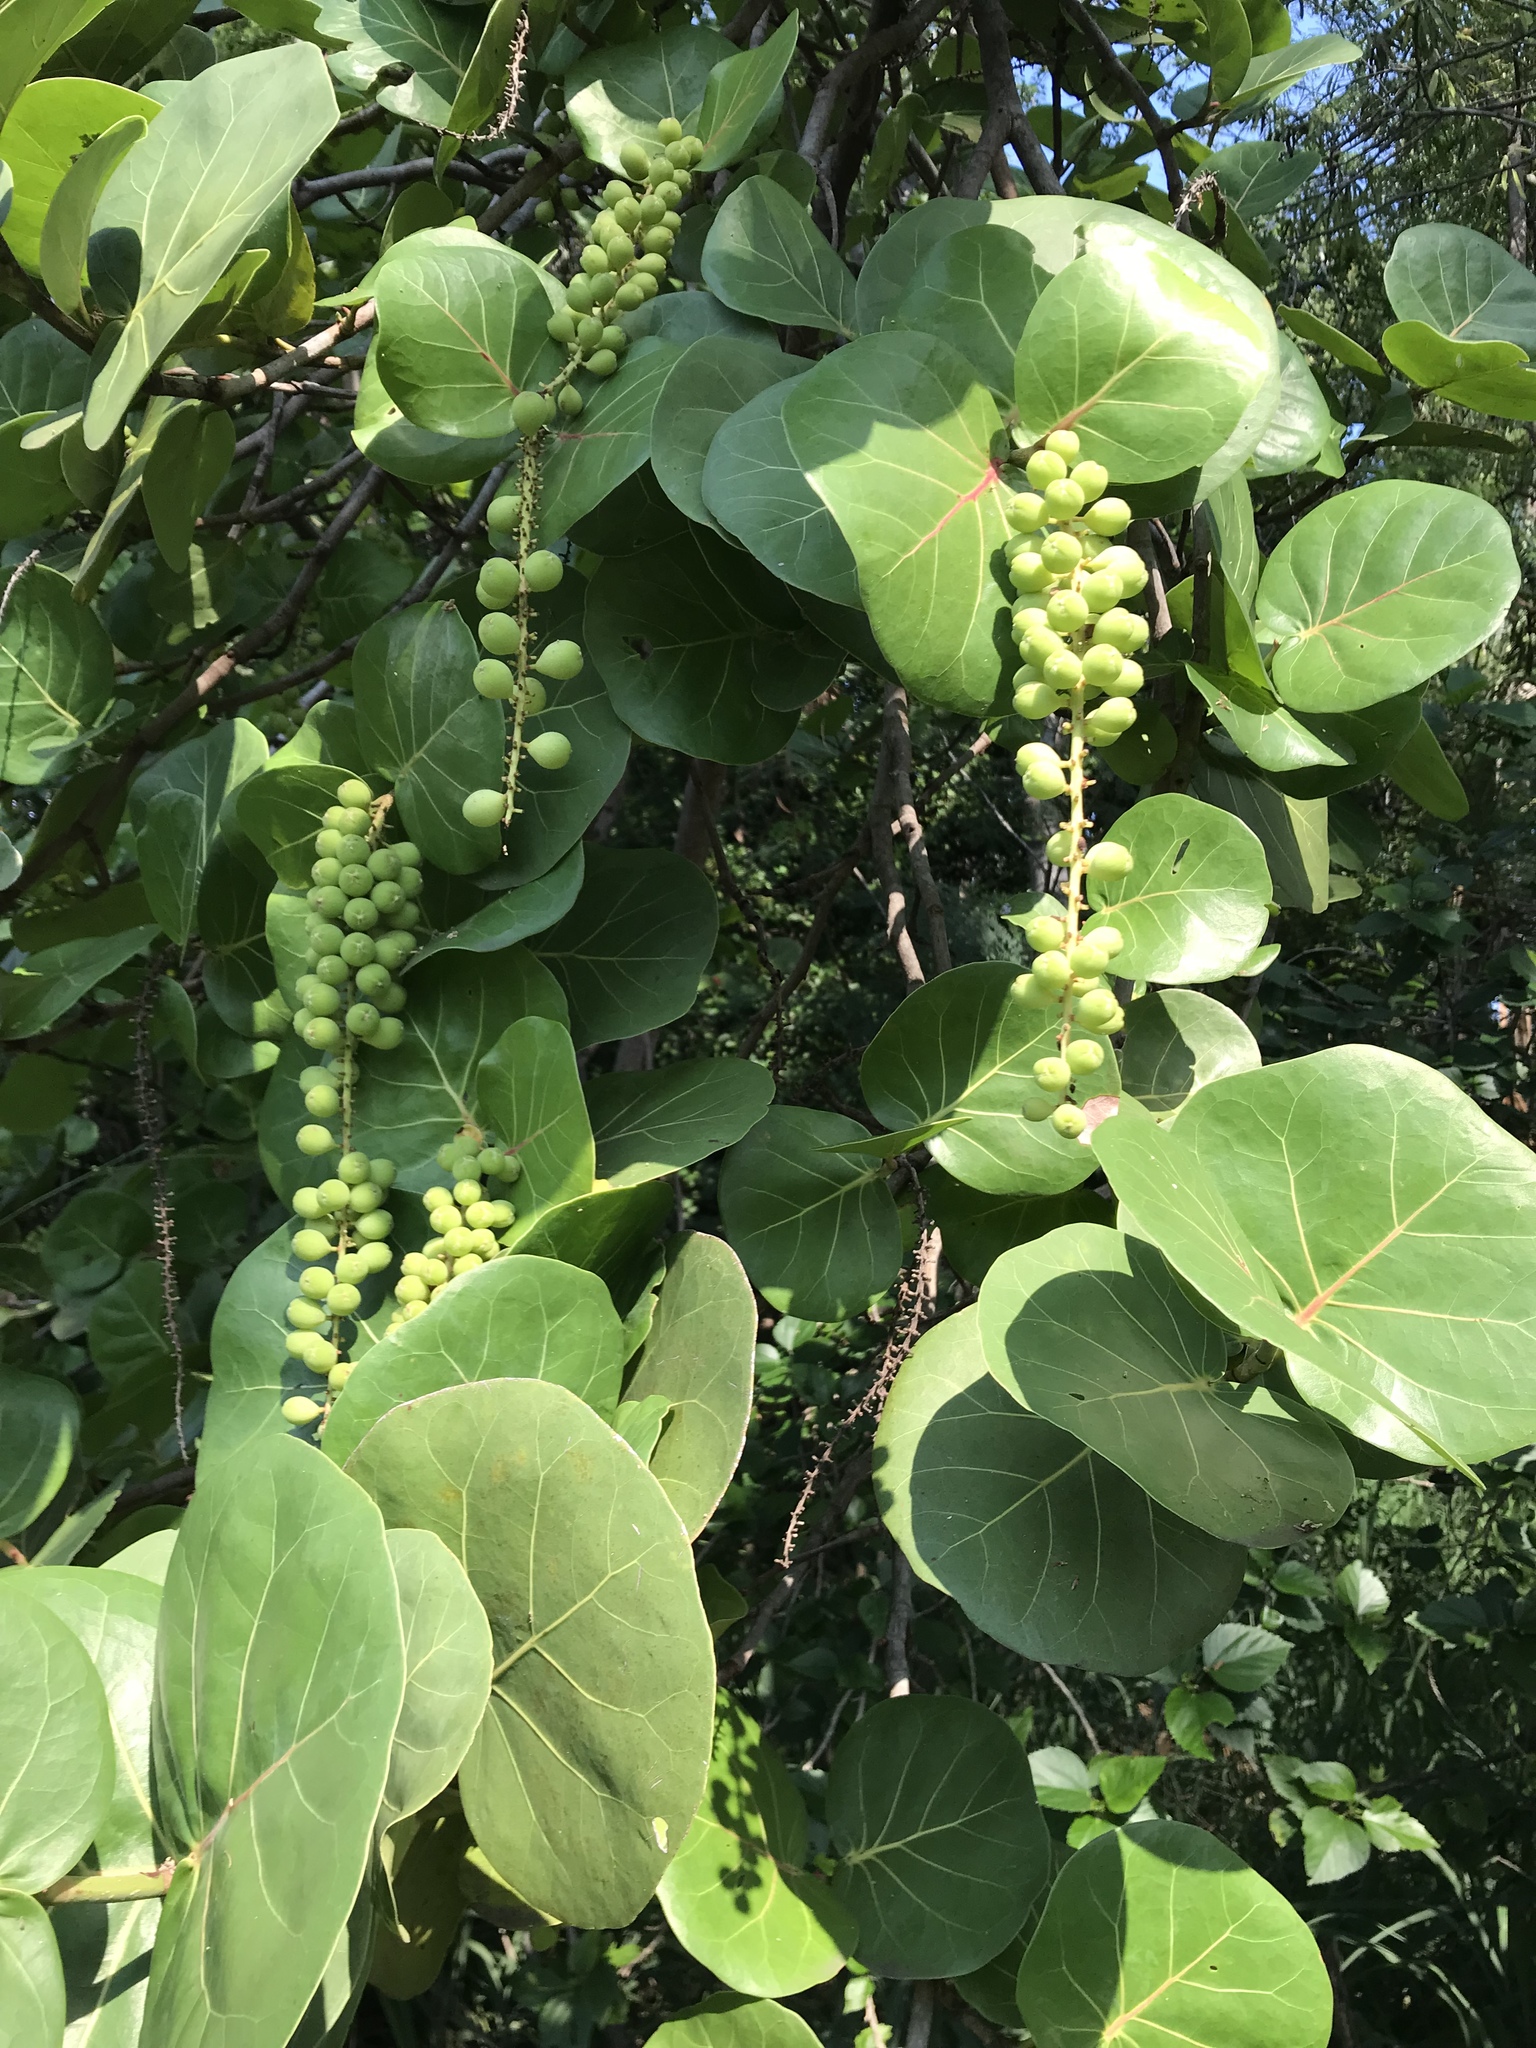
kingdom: Plantae
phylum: Tracheophyta
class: Magnoliopsida
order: Caryophyllales
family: Polygonaceae
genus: Coccoloba
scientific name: Coccoloba uvifera
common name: Seagrape
